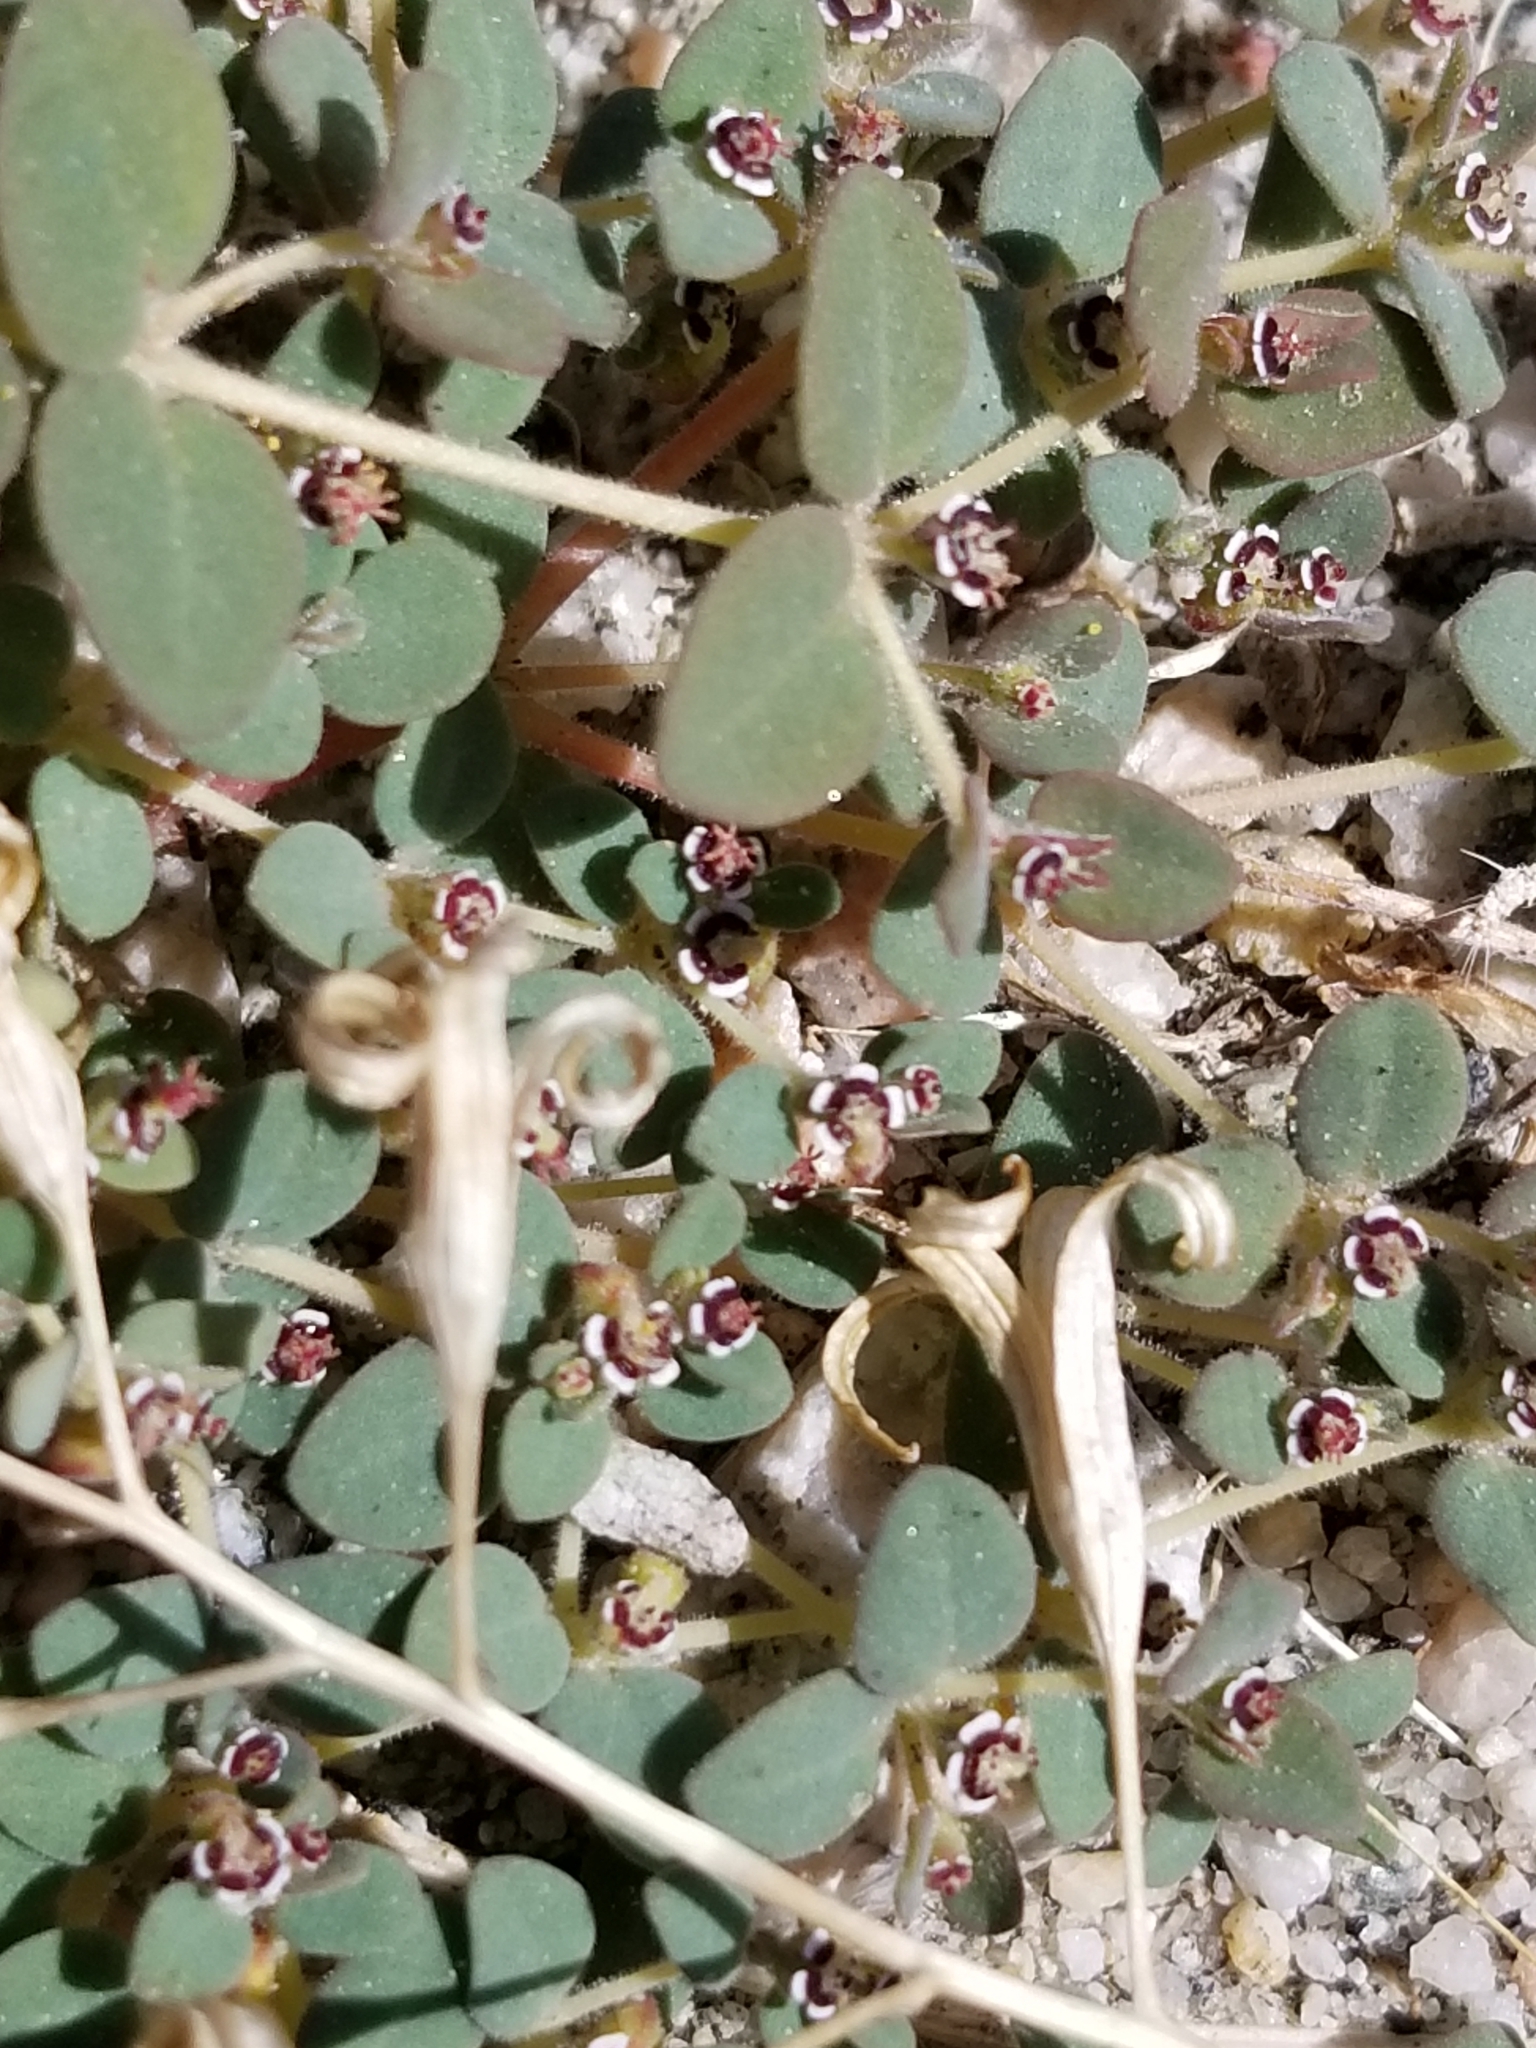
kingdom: Plantae
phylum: Tracheophyta
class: Magnoliopsida
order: Malpighiales
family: Euphorbiaceae
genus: Euphorbia
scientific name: Euphorbia polycarpa
